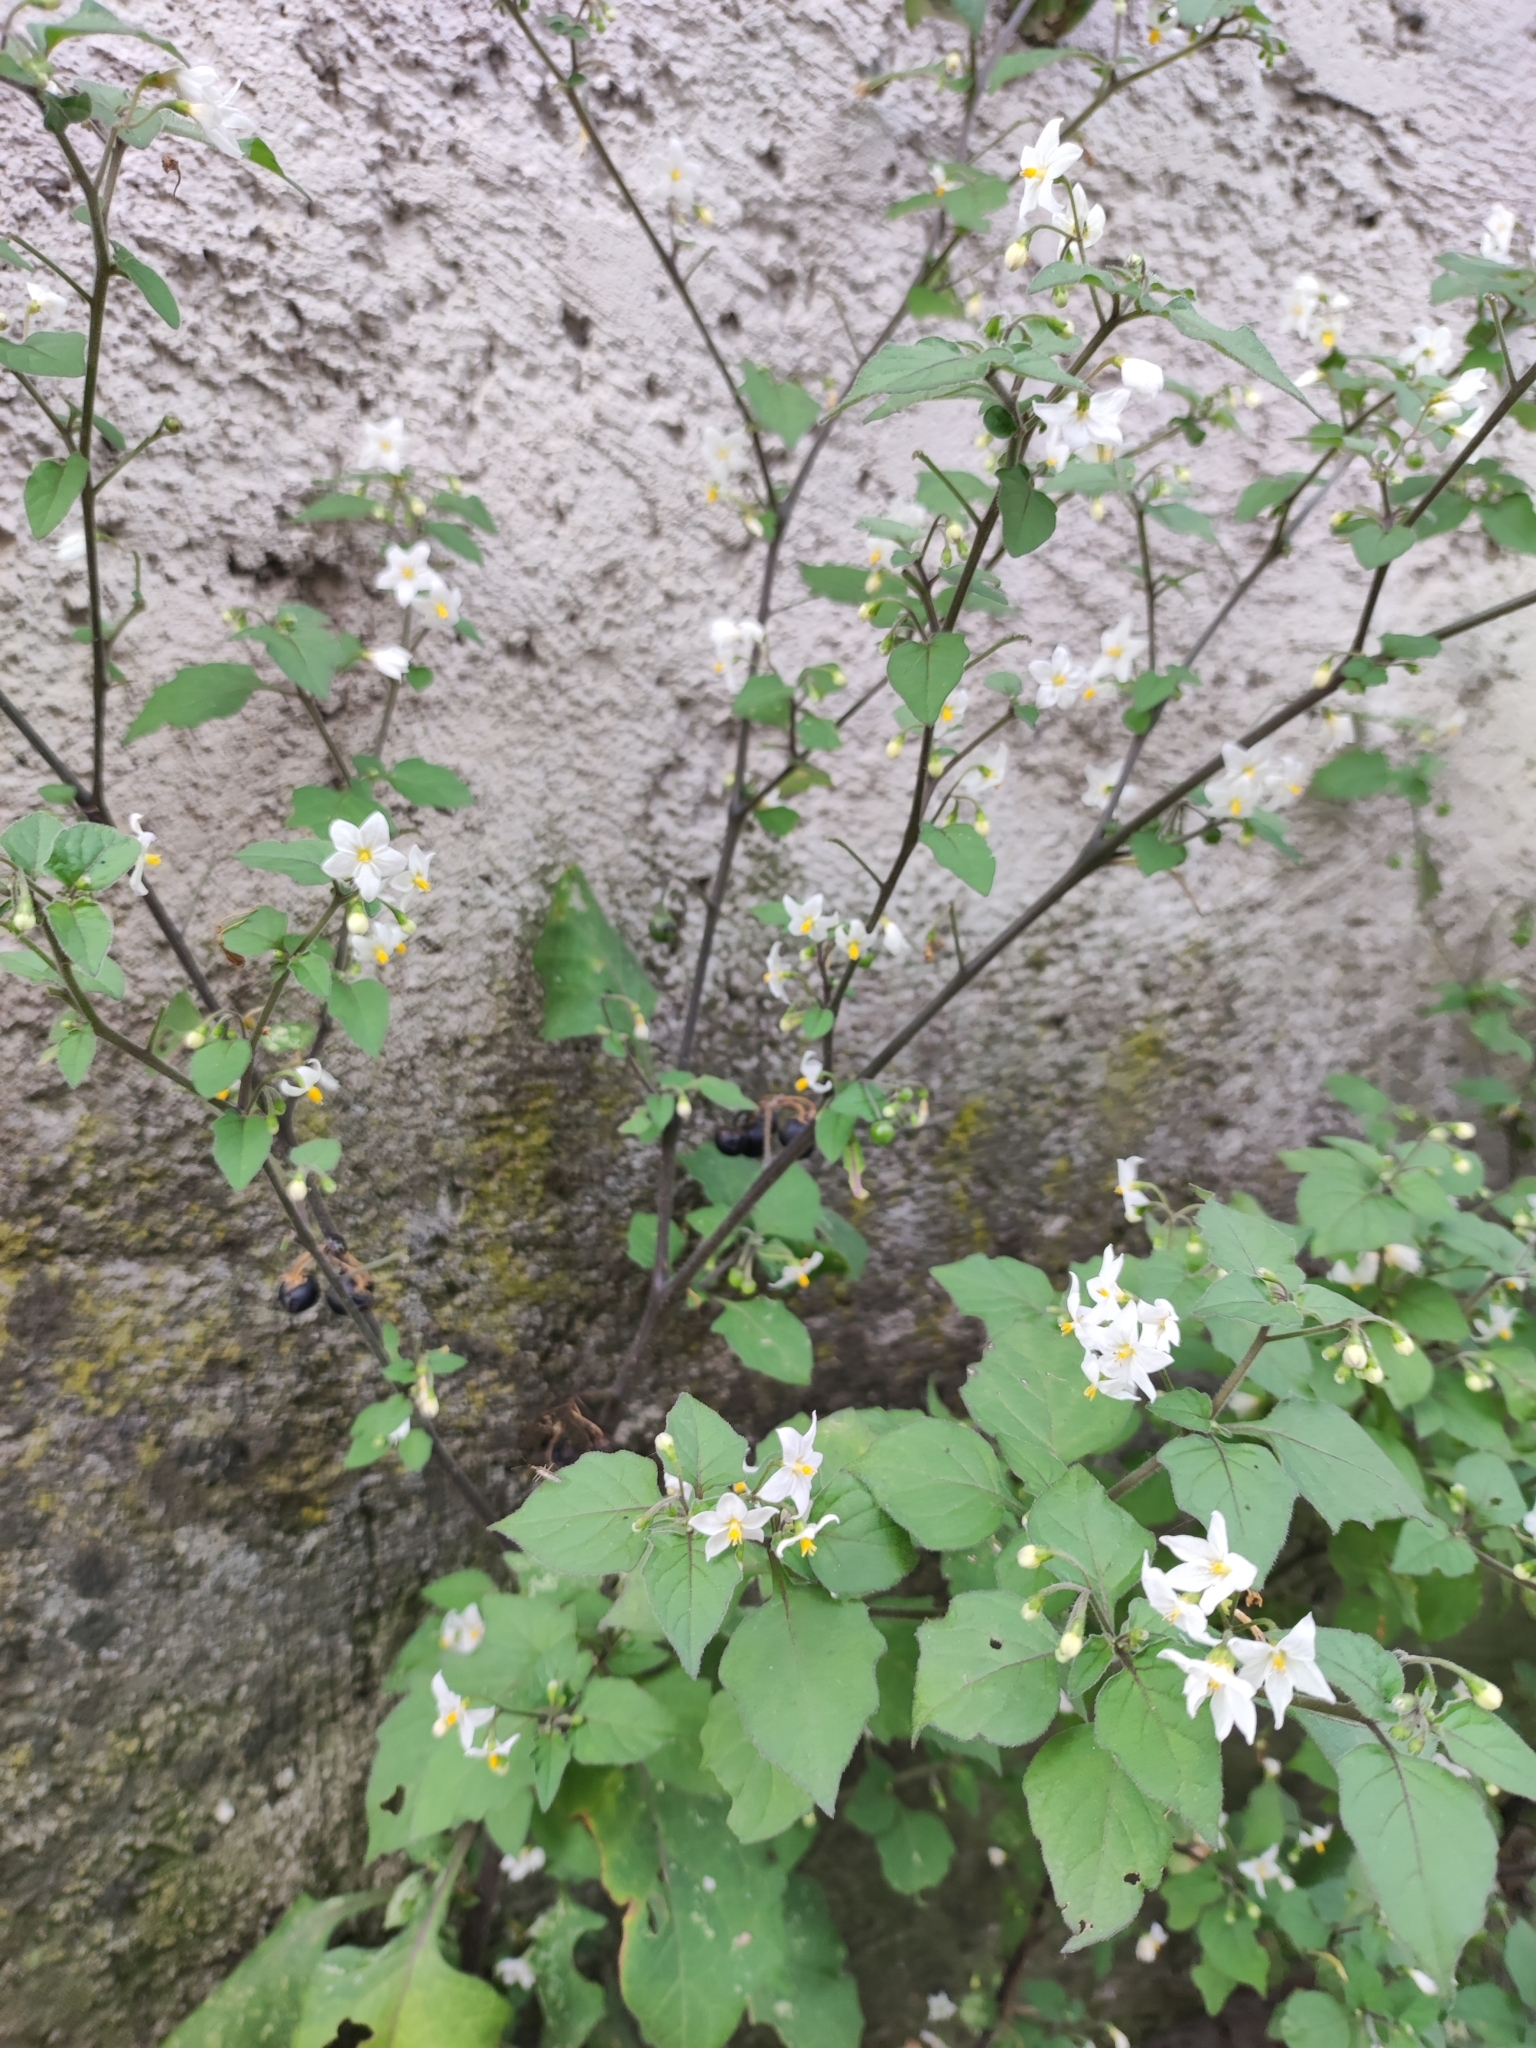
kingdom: Plantae
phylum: Tracheophyta
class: Magnoliopsida
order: Solanales
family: Solanaceae
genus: Solanum
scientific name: Solanum nigrum
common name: Black nightshade
